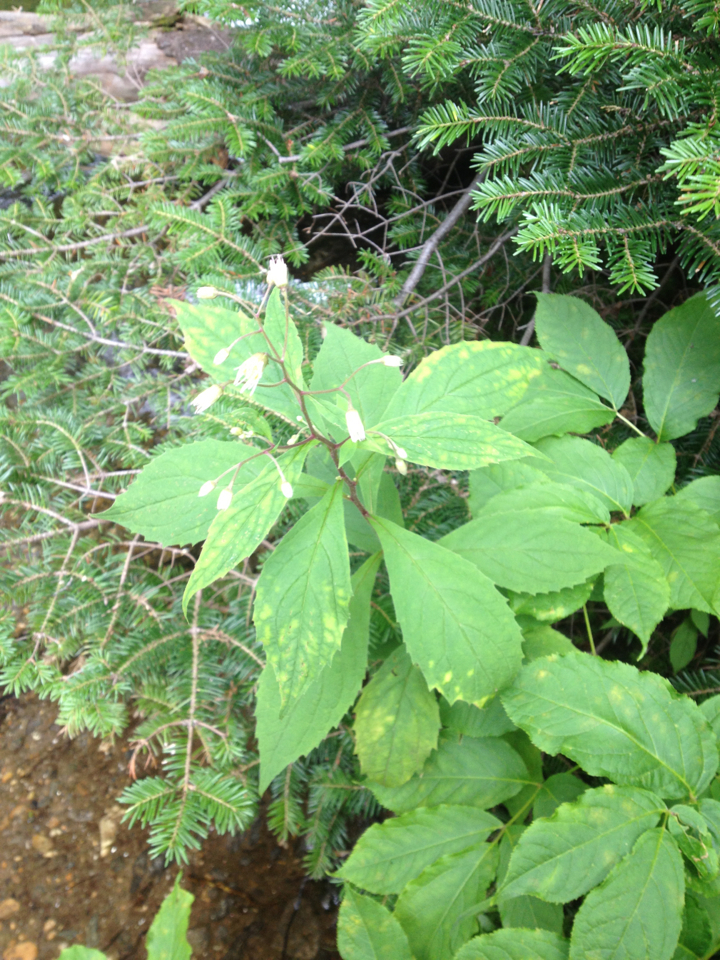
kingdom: Plantae
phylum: Tracheophyta
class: Magnoliopsida
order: Asterales
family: Asteraceae
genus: Oclemena
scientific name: Oclemena acuminata
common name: Mountain aster
